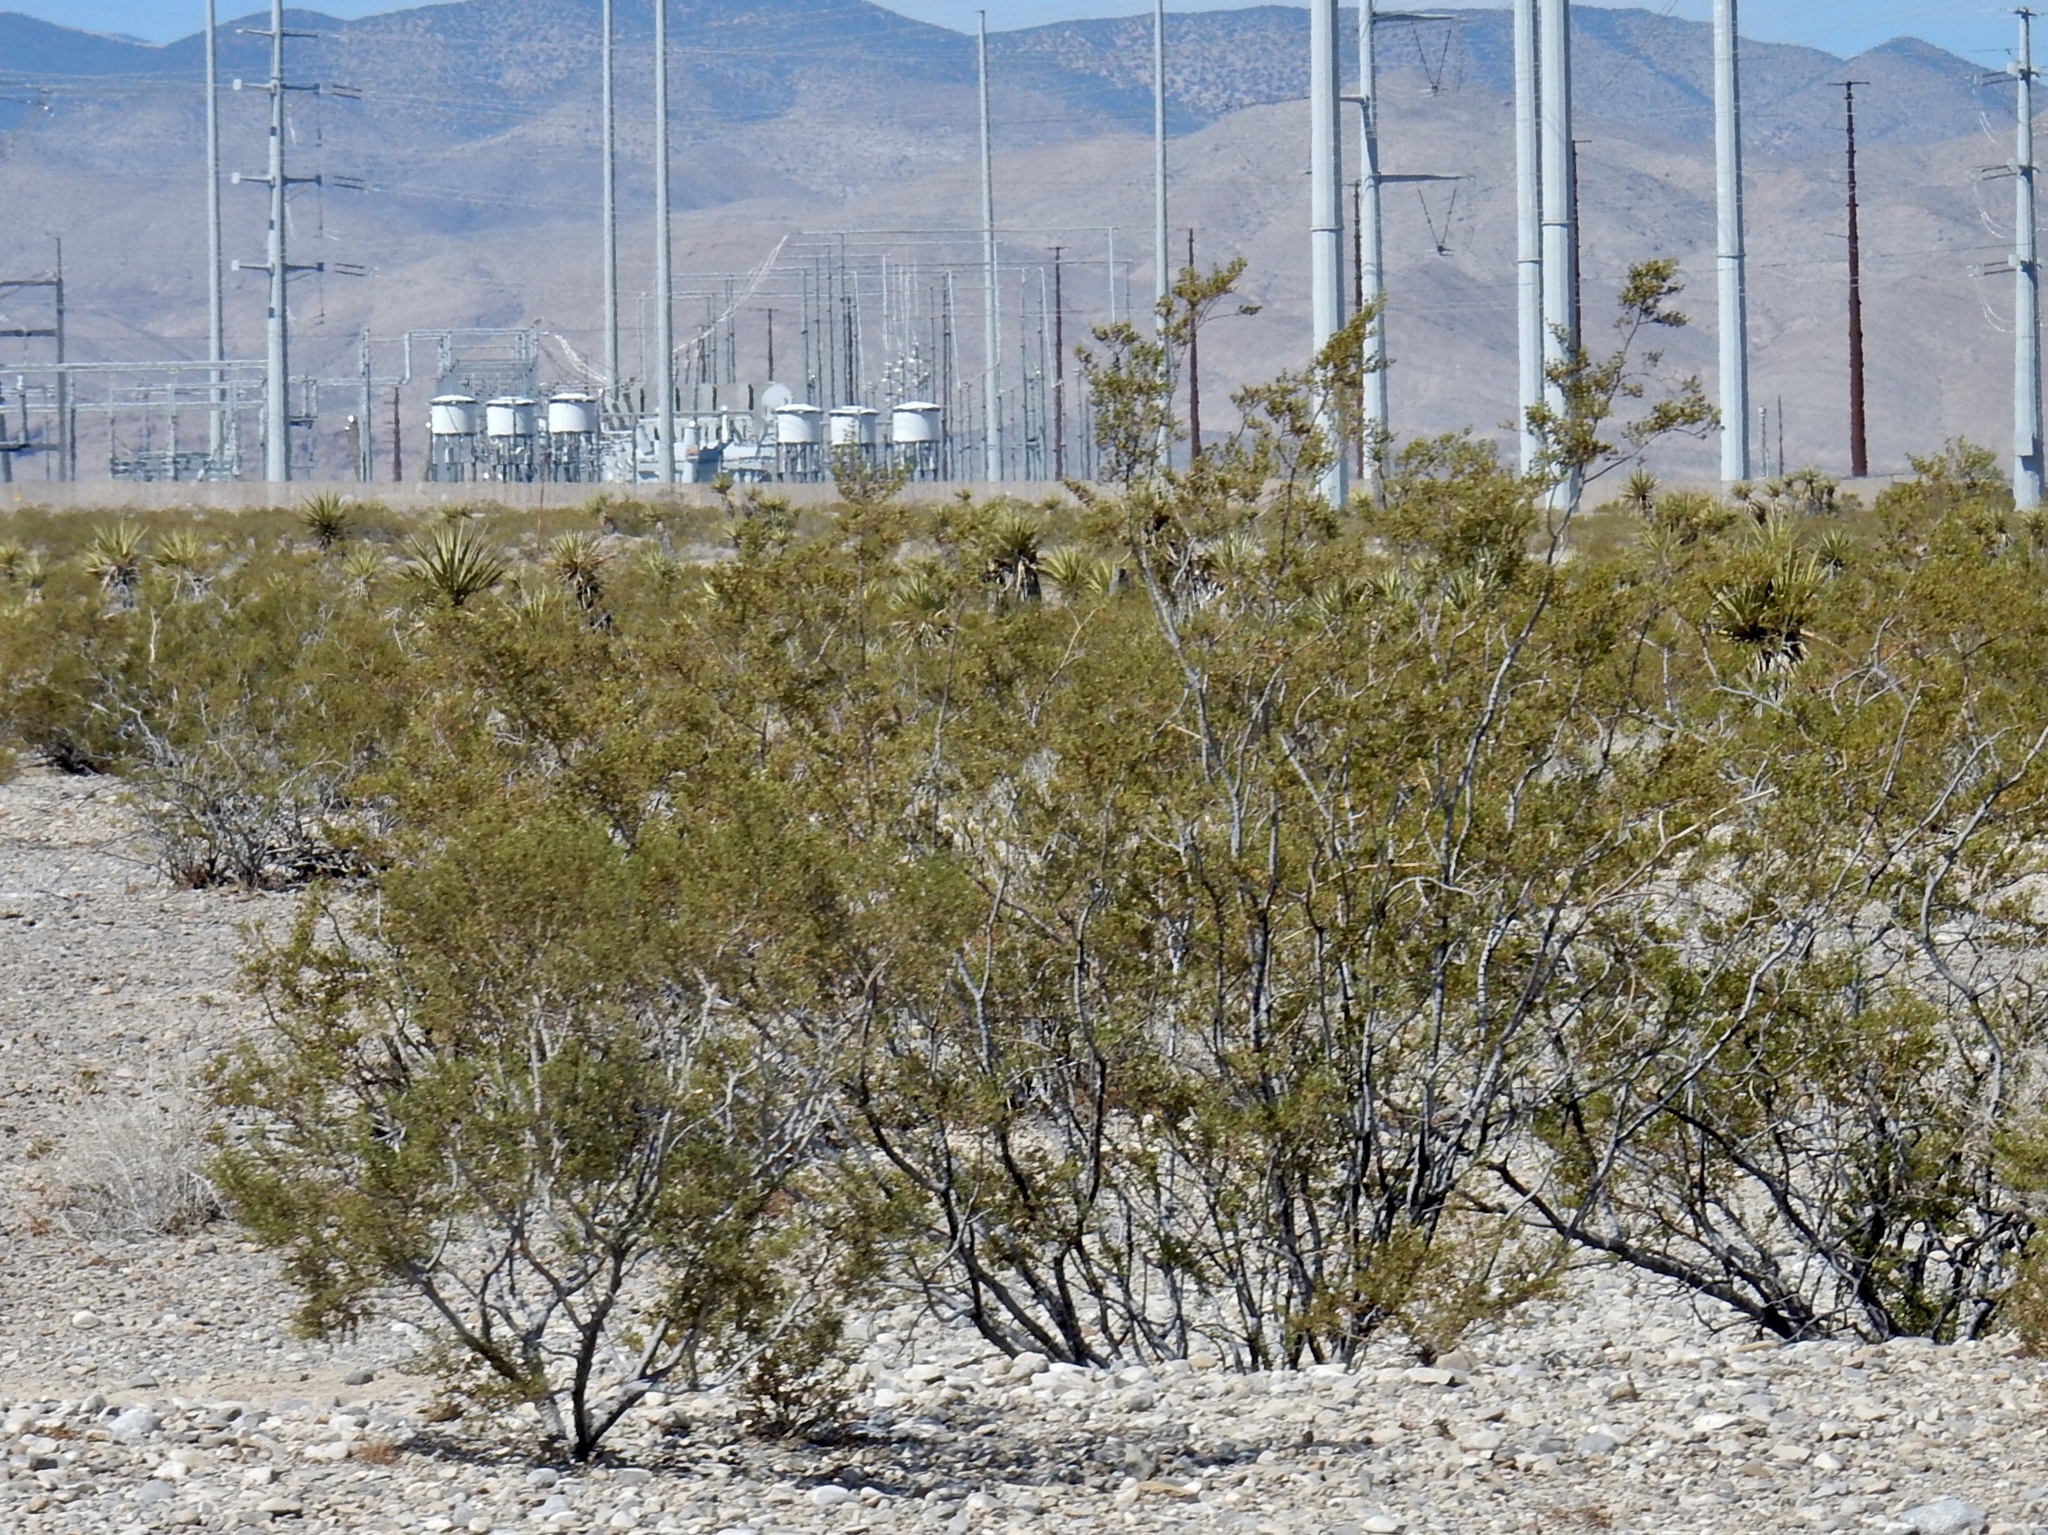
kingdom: Plantae
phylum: Tracheophyta
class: Magnoliopsida
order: Zygophyllales
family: Zygophyllaceae
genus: Larrea
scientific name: Larrea tridentata
